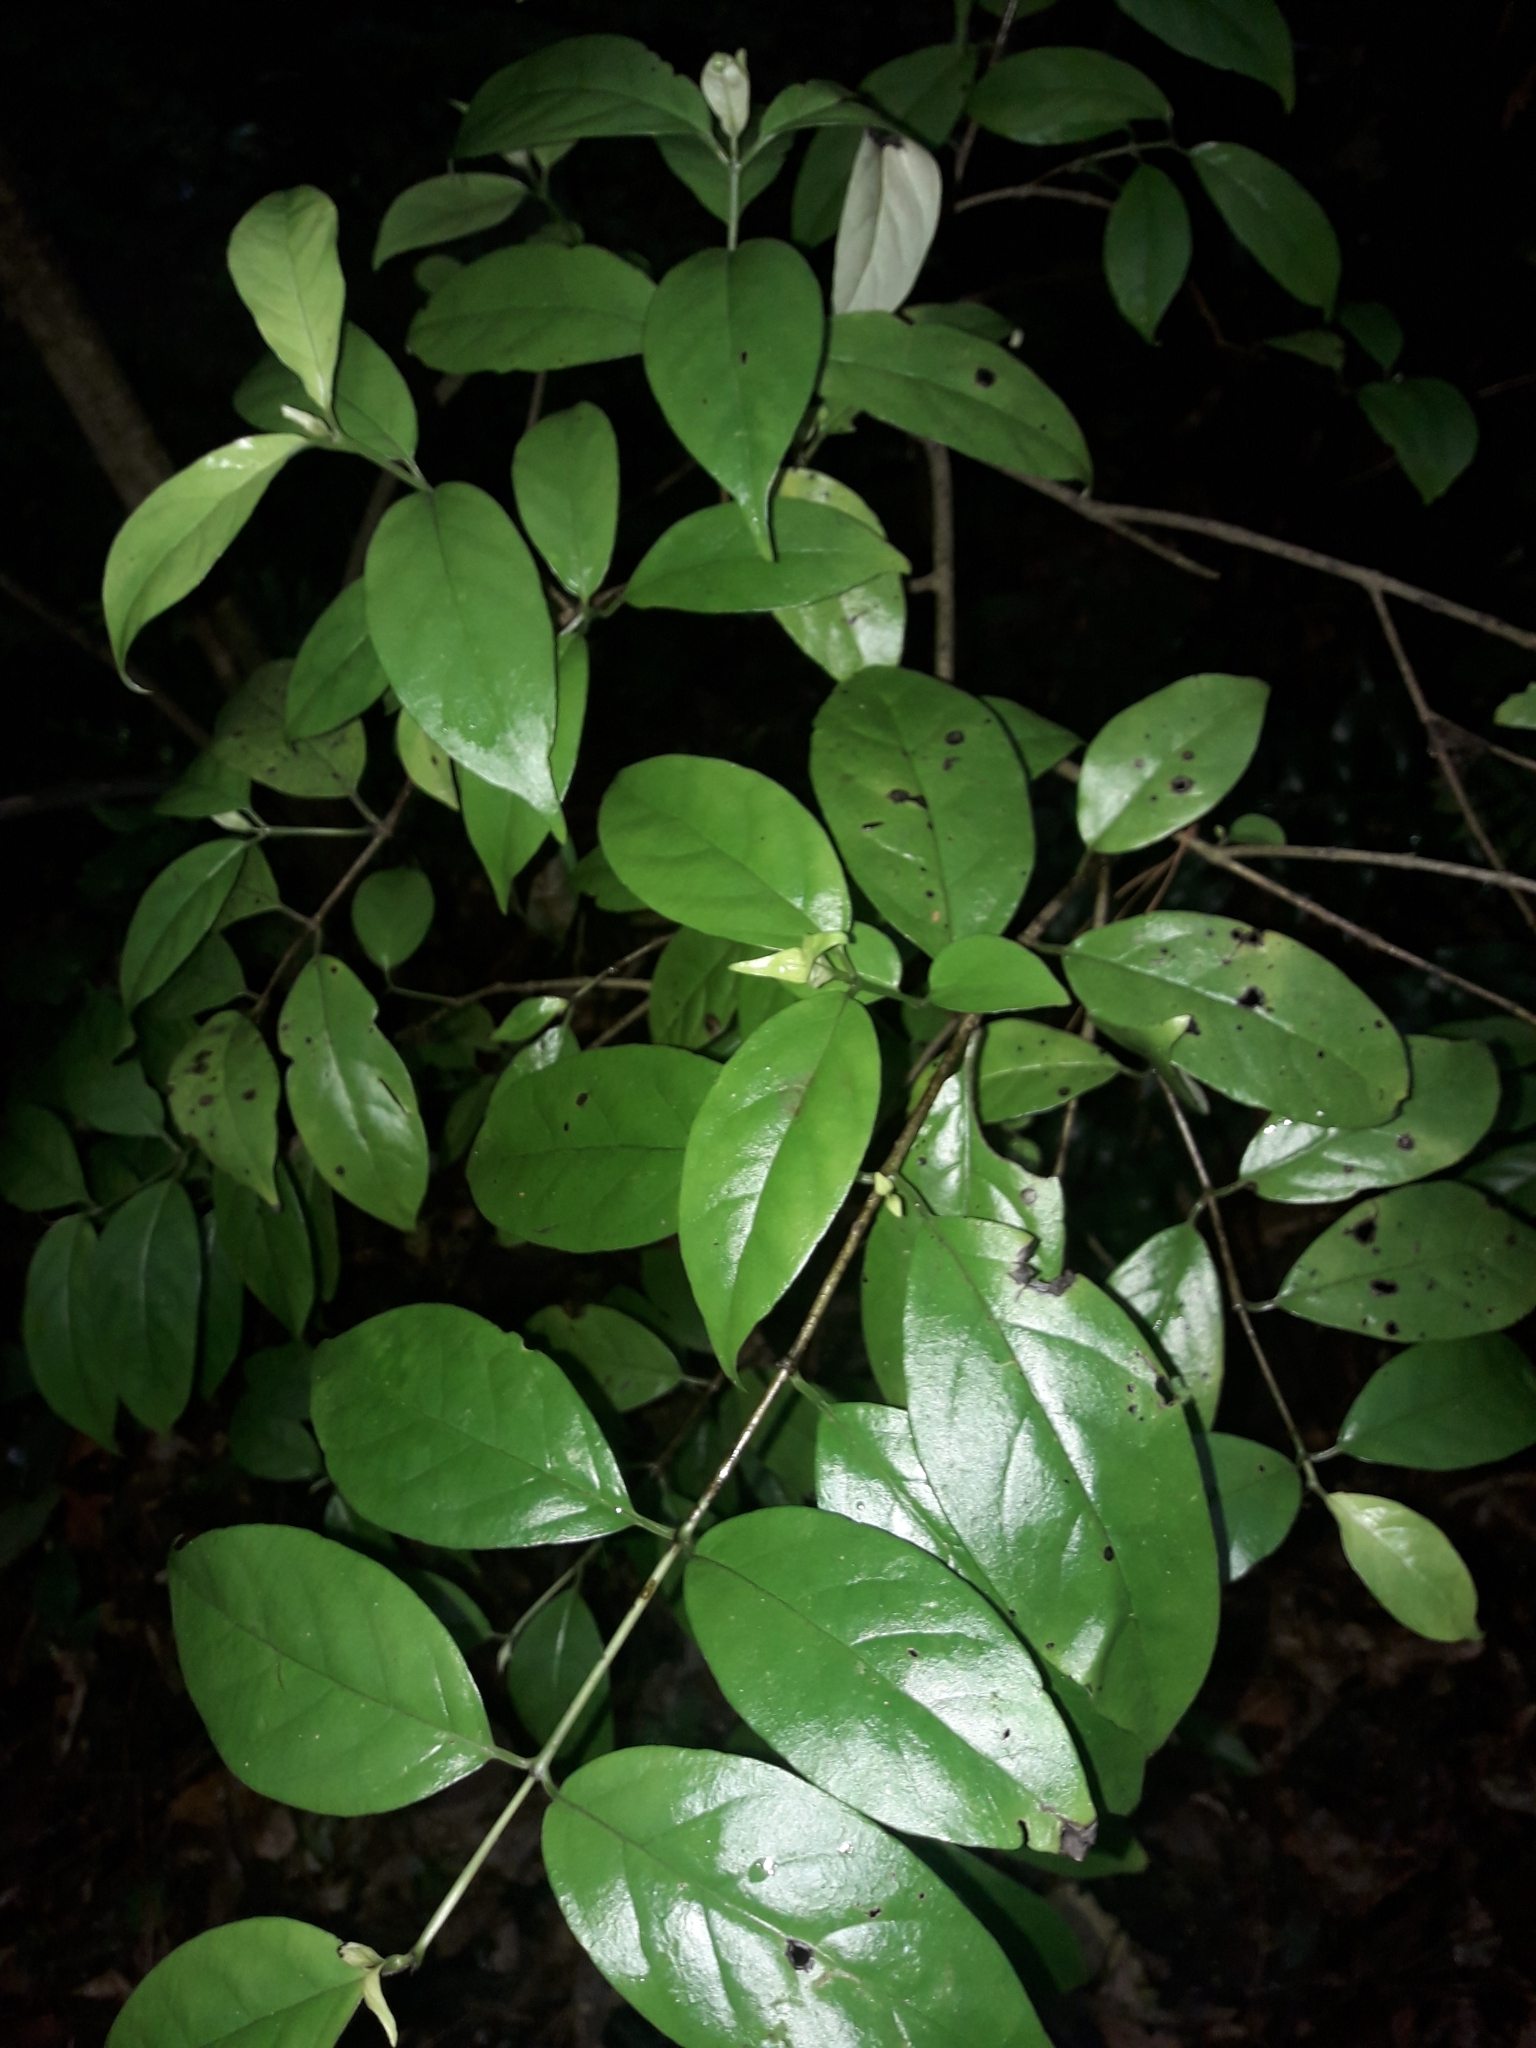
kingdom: Plantae
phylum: Tracheophyta
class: Magnoliopsida
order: Gentianales
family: Loganiaceae
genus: Geniostoma
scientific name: Geniostoma ligustrifolium
